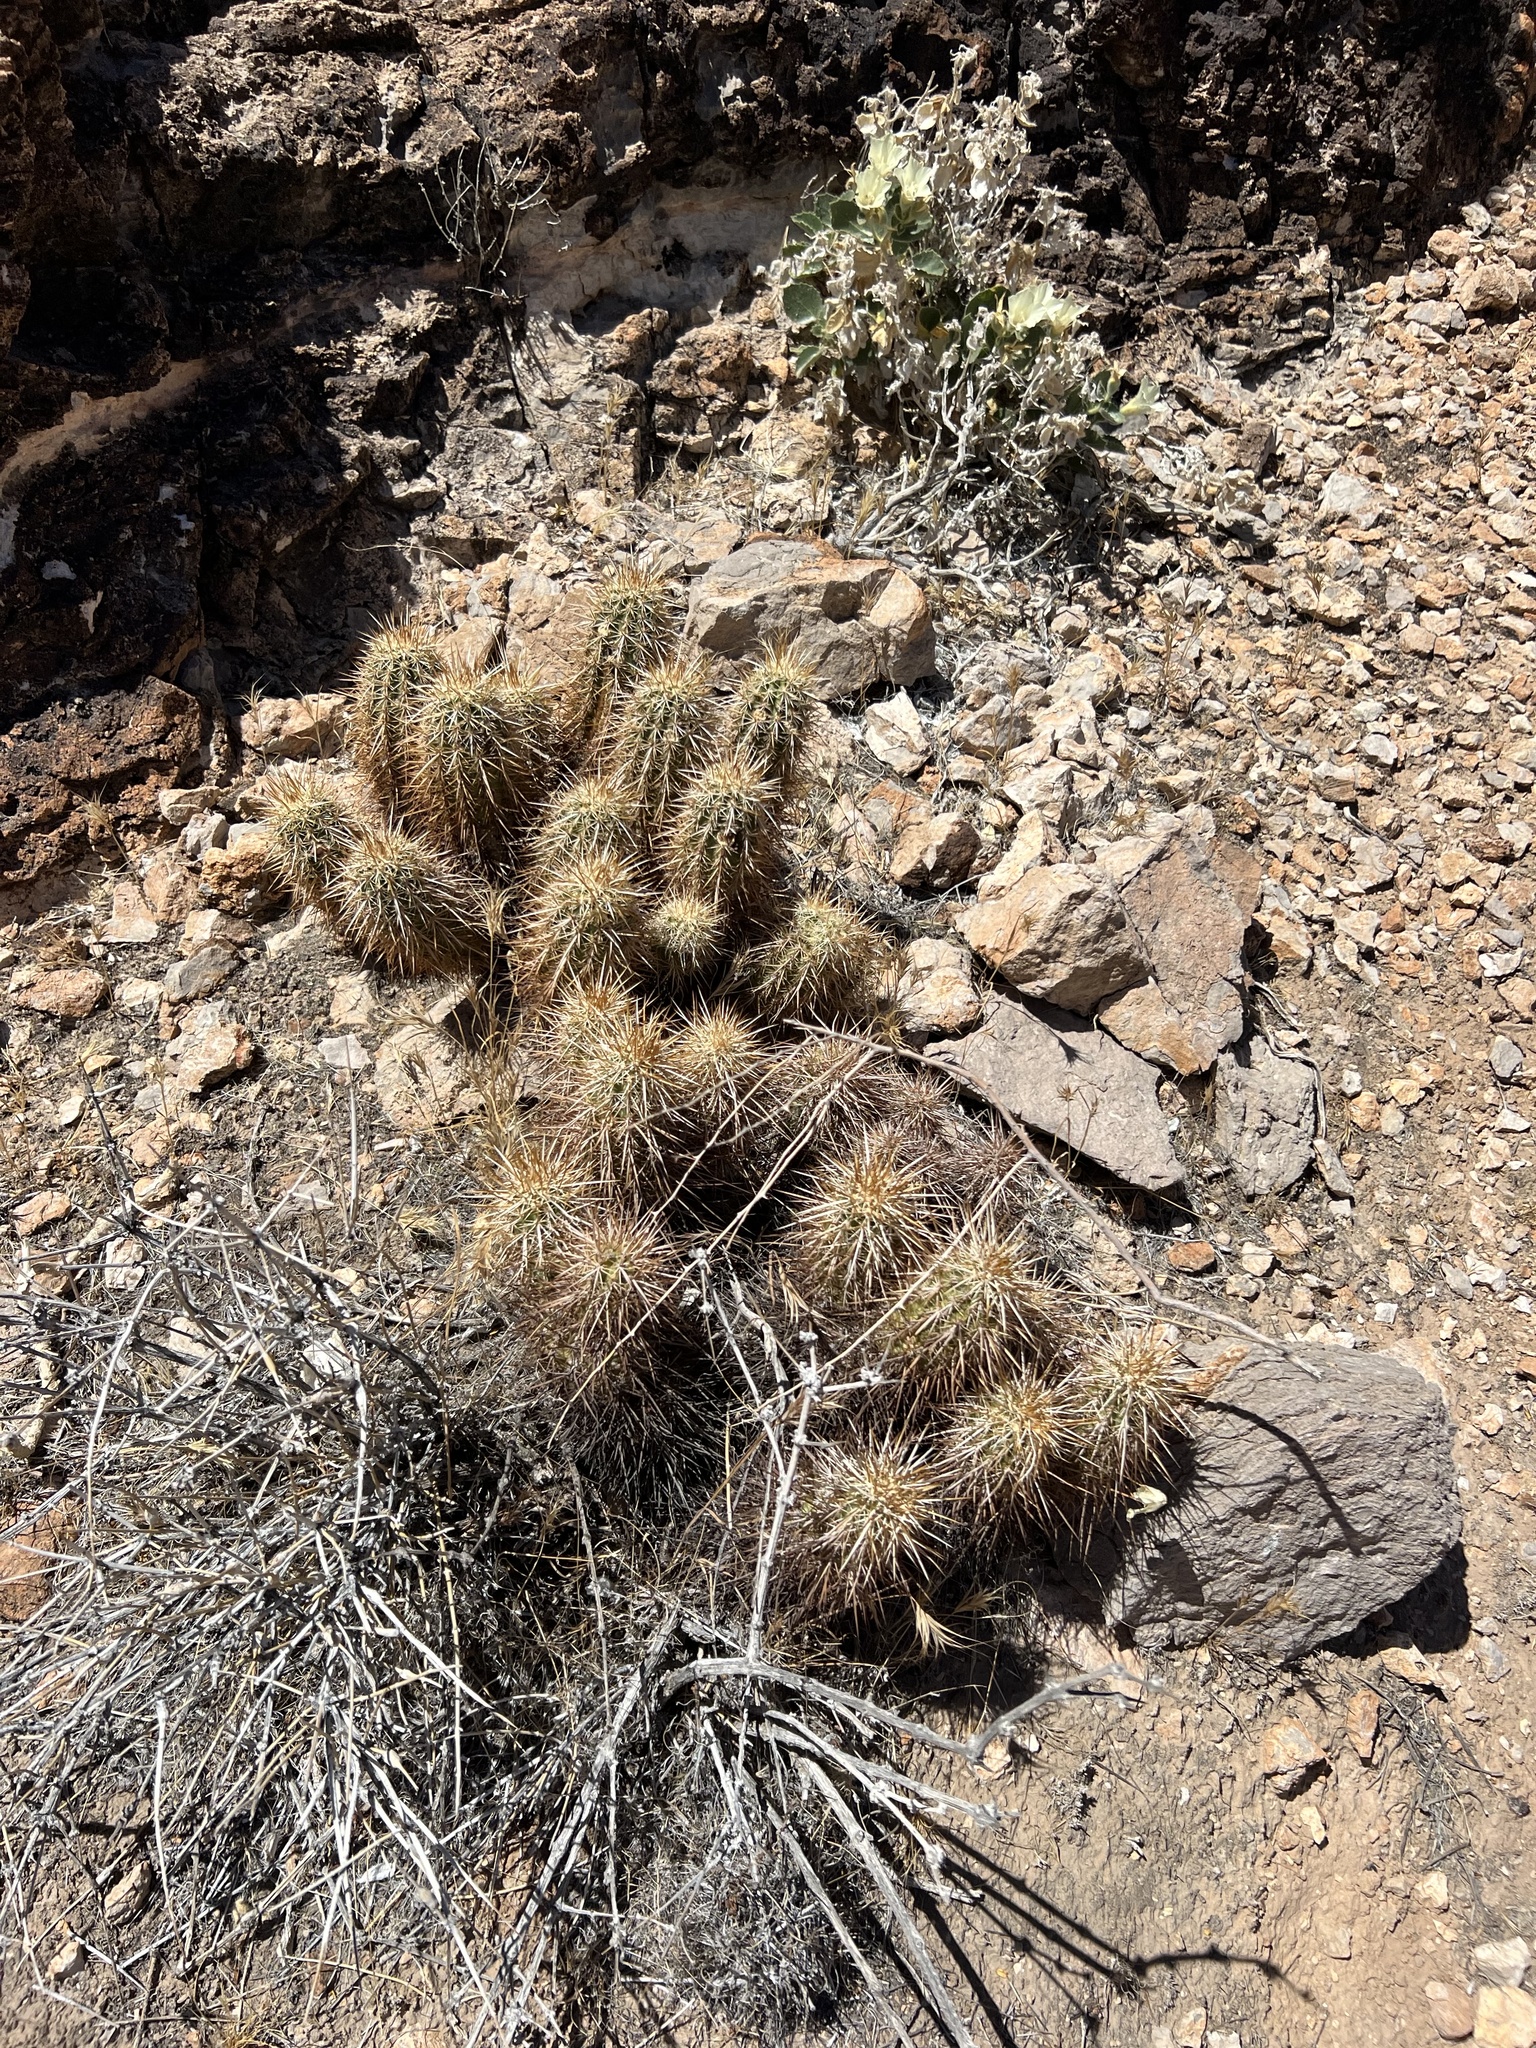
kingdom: Plantae
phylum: Tracheophyta
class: Magnoliopsida
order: Caryophyllales
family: Cactaceae
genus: Echinocereus
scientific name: Echinocereus engelmannii
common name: Engelmann's hedgehog cactus
